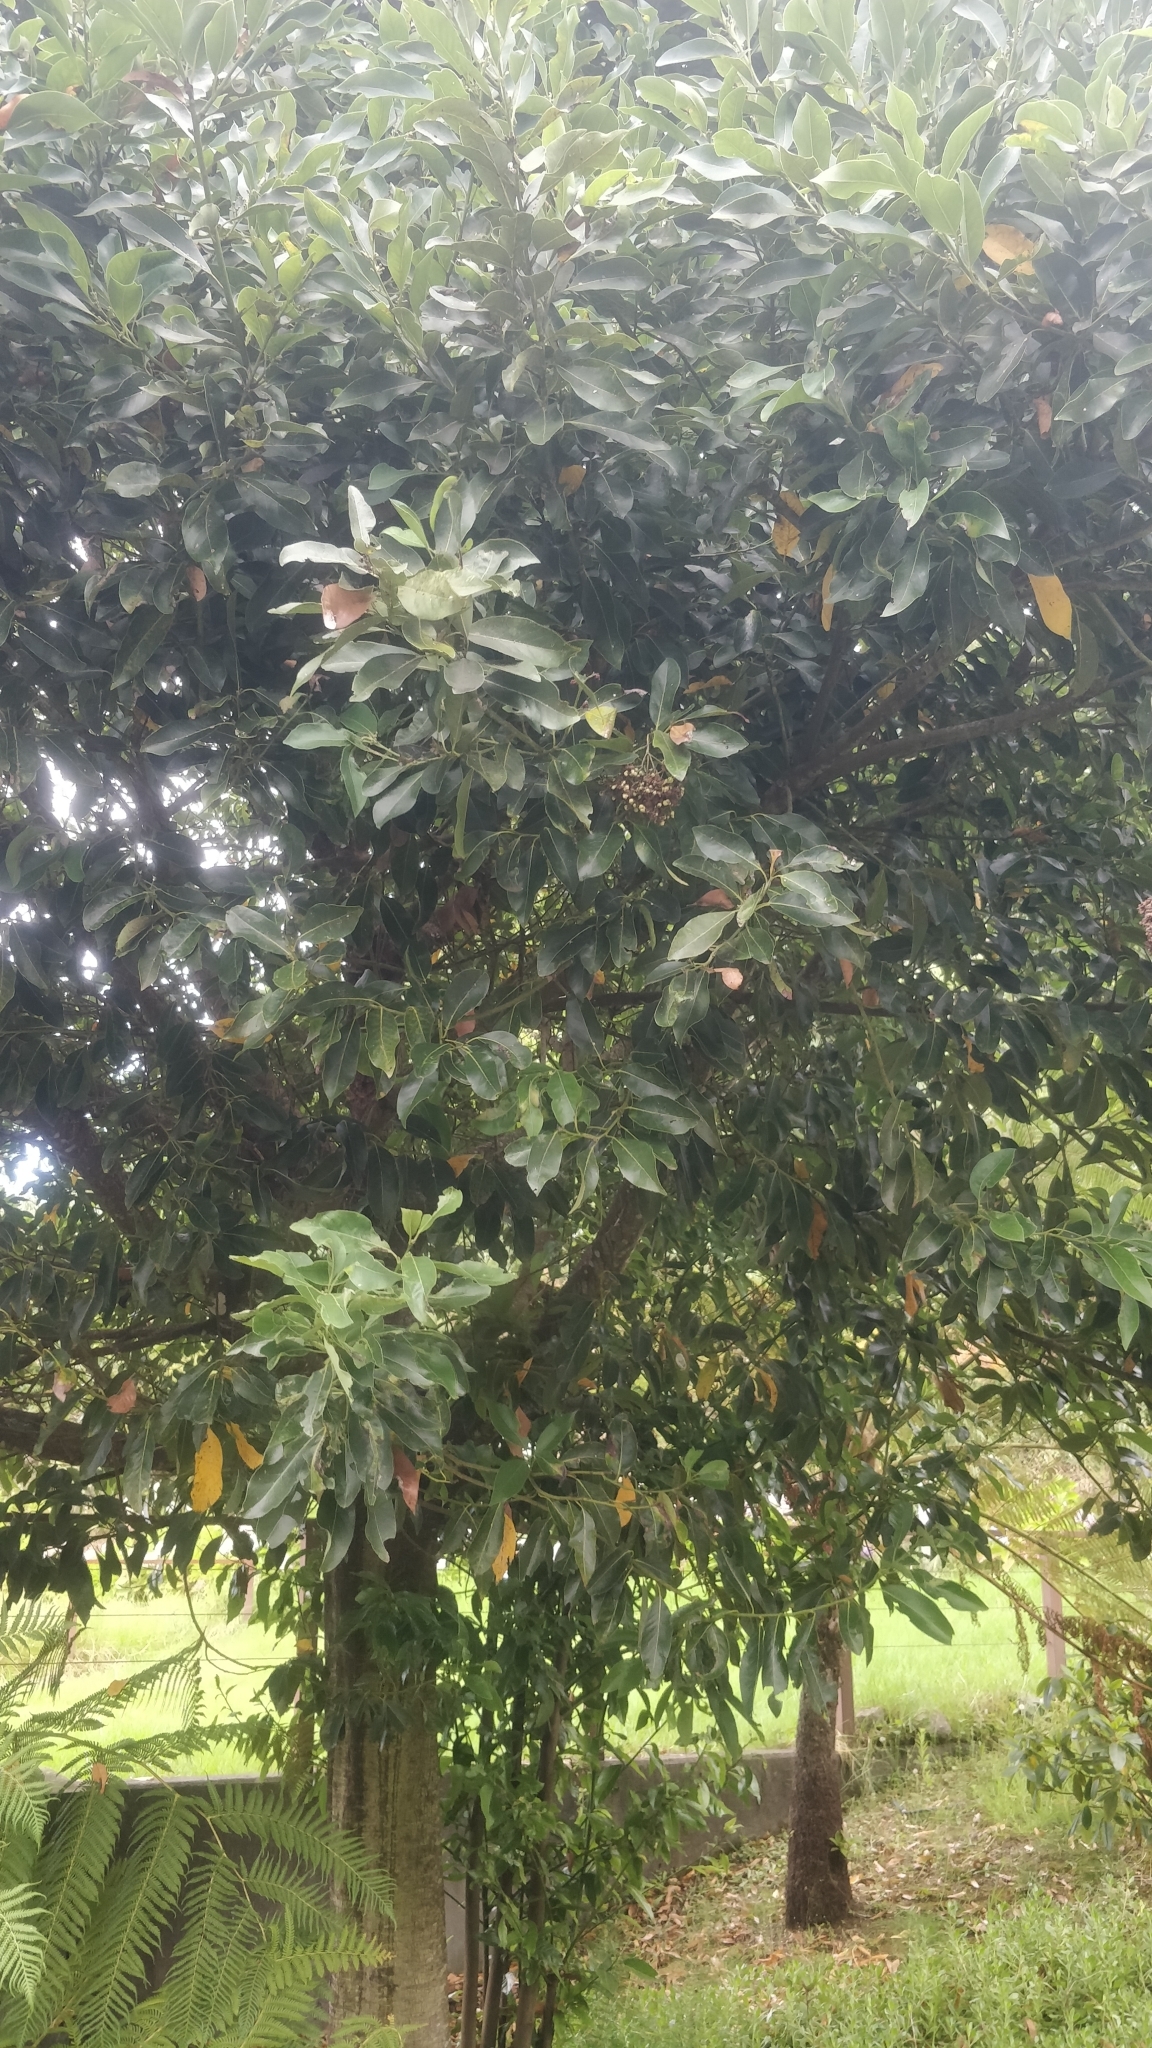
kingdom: Plantae
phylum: Tracheophyta
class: Magnoliopsida
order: Laurales
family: Lauraceae
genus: Laurus
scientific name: Laurus novocanariensis
